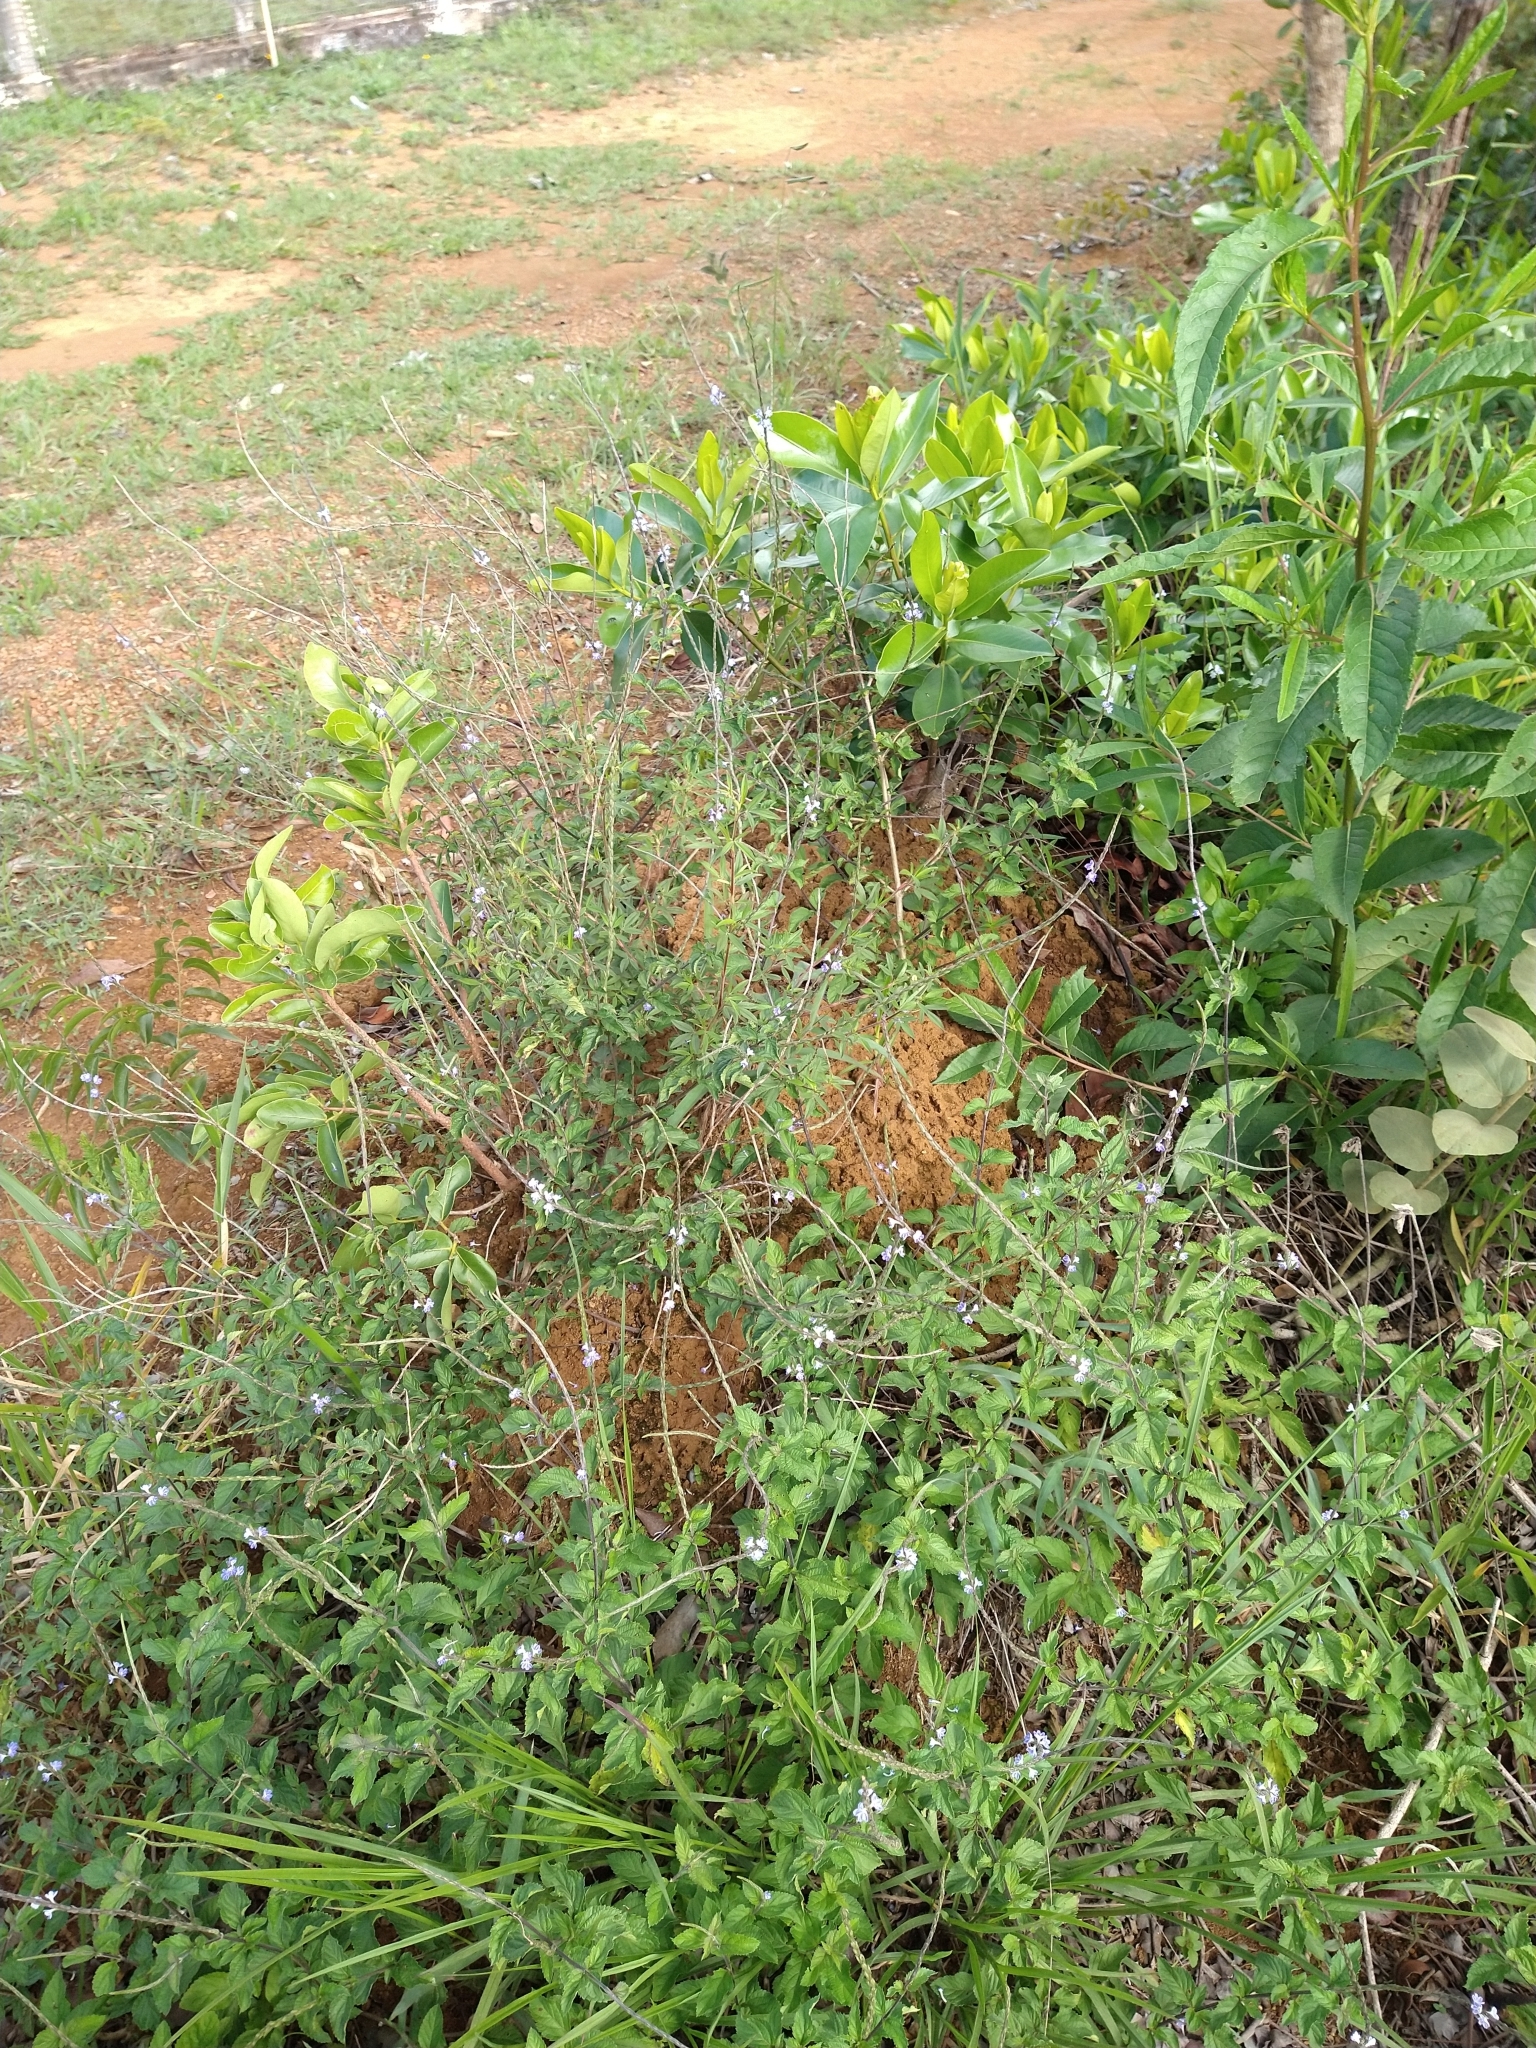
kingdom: Plantae
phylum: Tracheophyta
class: Magnoliopsida
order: Lamiales
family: Verbenaceae
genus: Stachytarpheta
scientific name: Stachytarpheta cayennensis
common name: Cayenne porterweed
